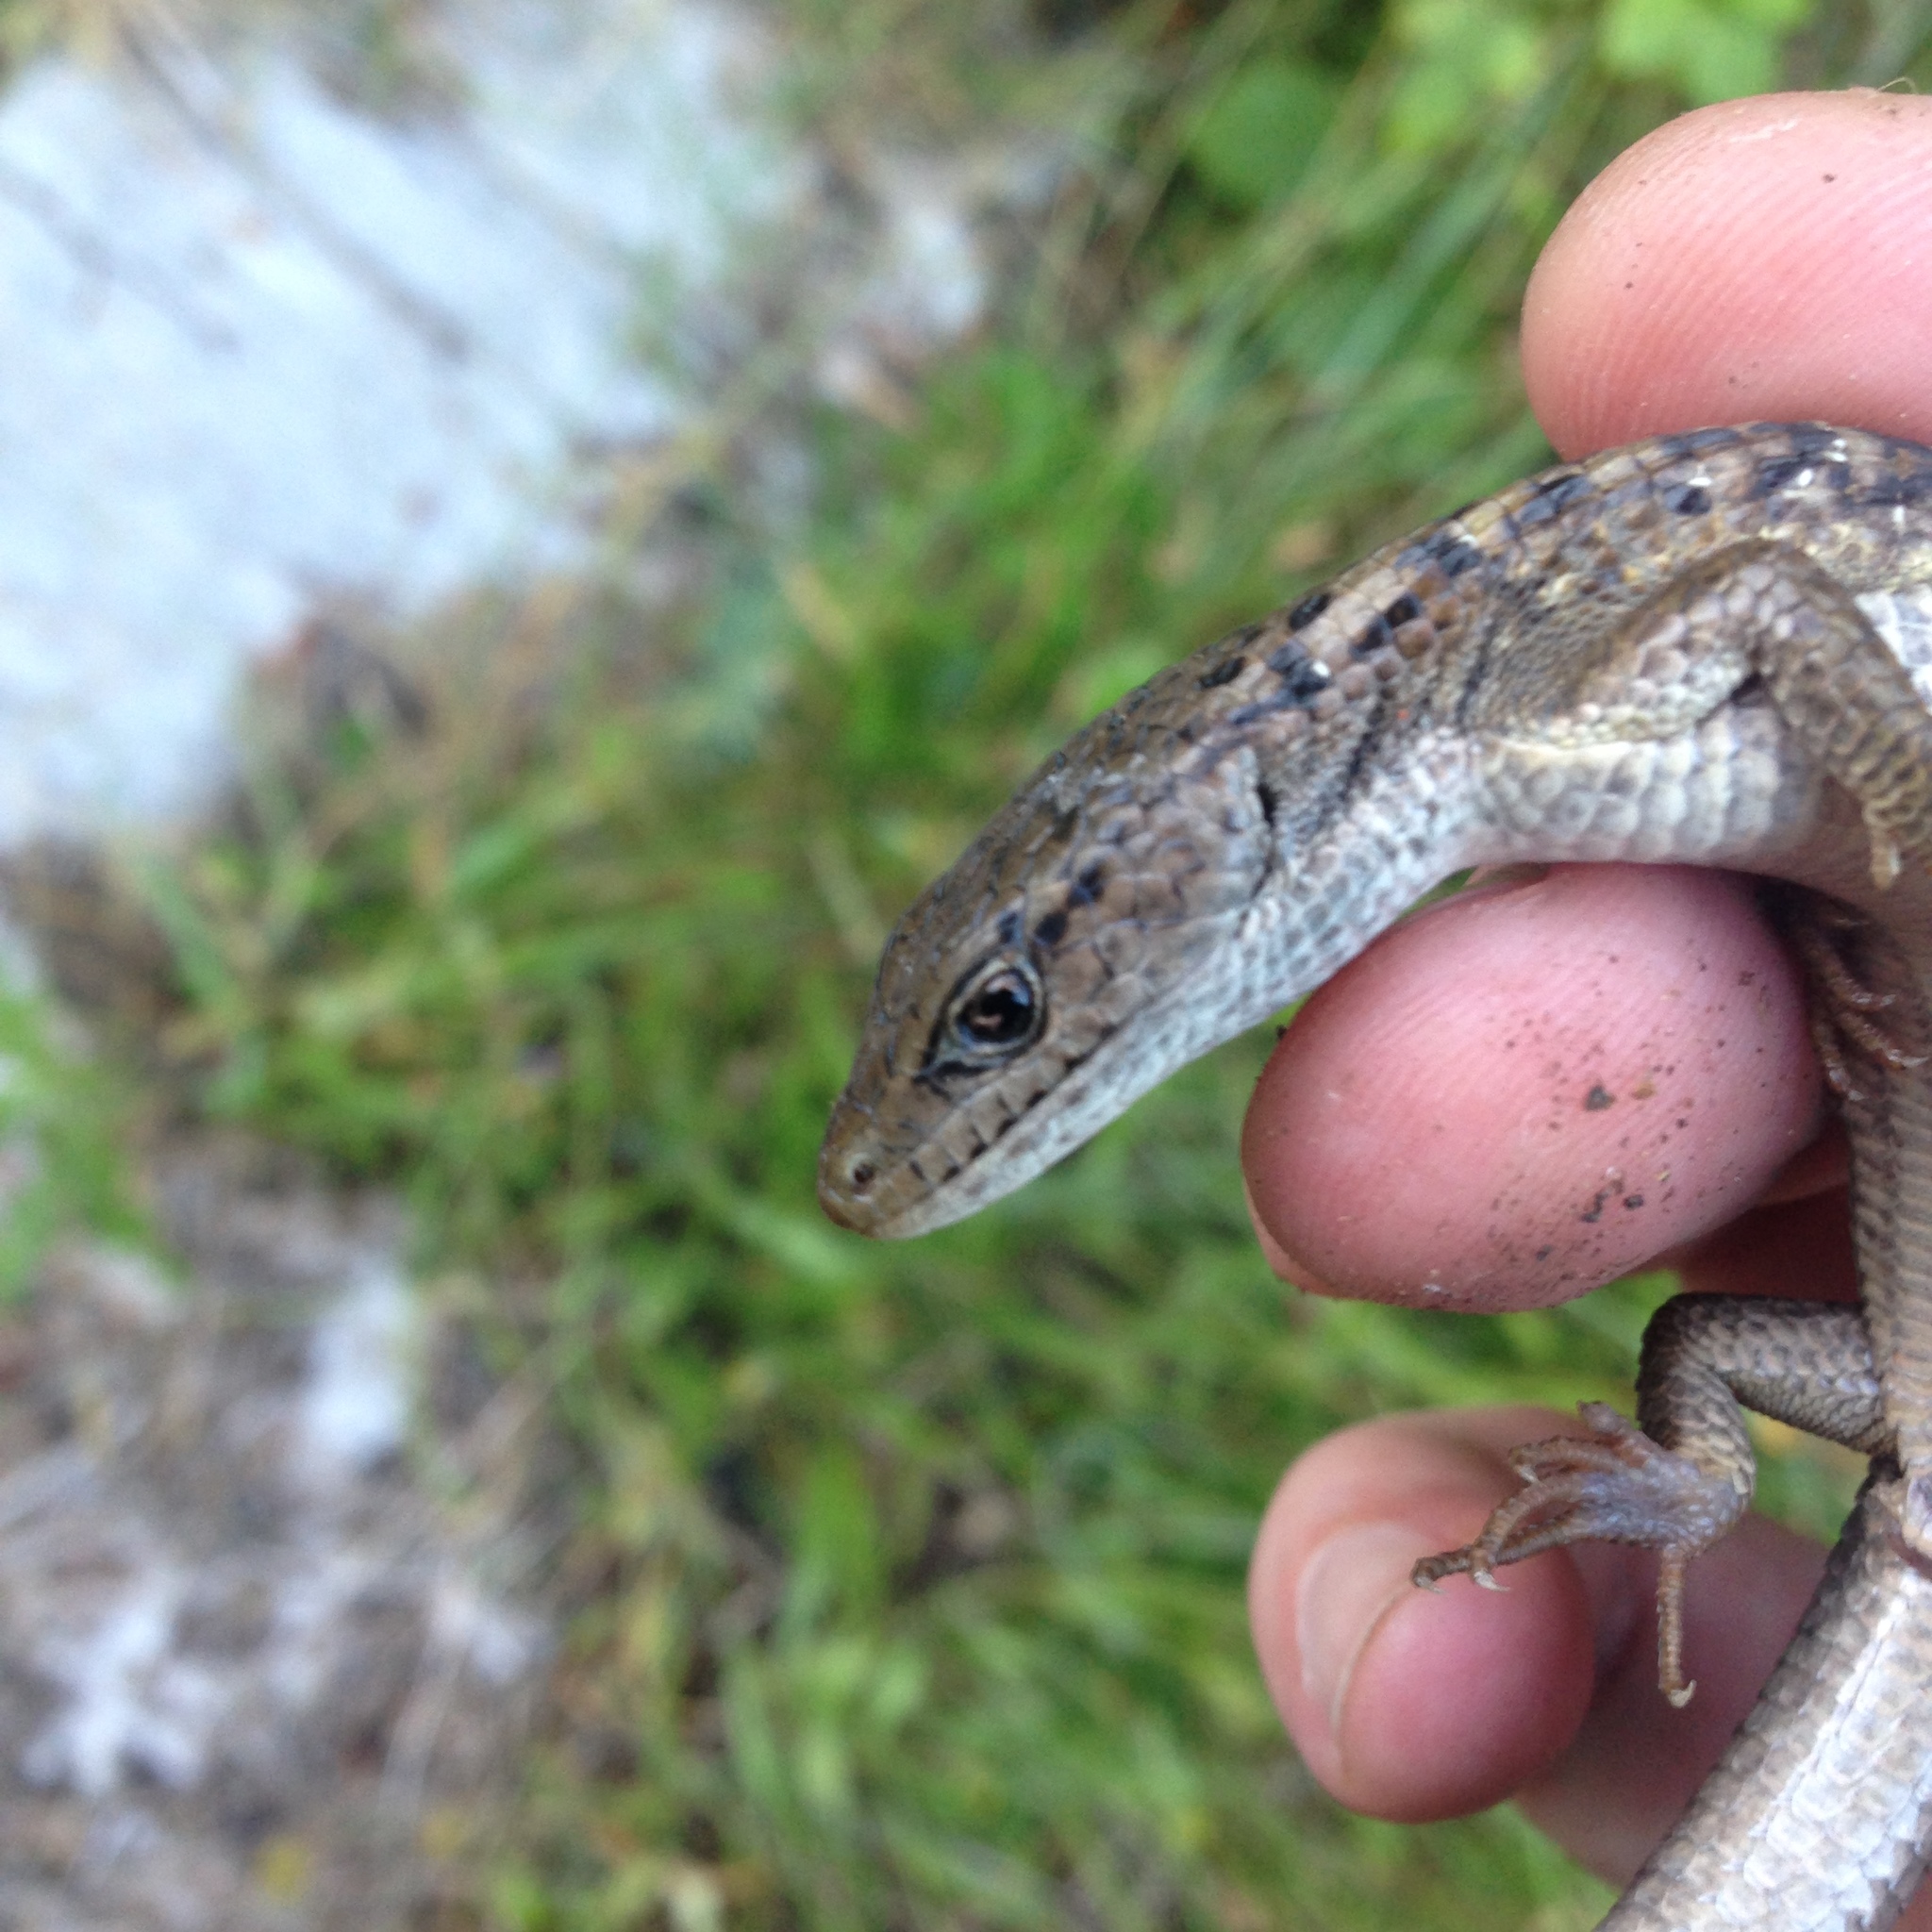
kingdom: Animalia
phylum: Chordata
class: Squamata
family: Anguidae
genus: Elgaria
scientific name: Elgaria coerulea
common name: Northern alligator lizard
